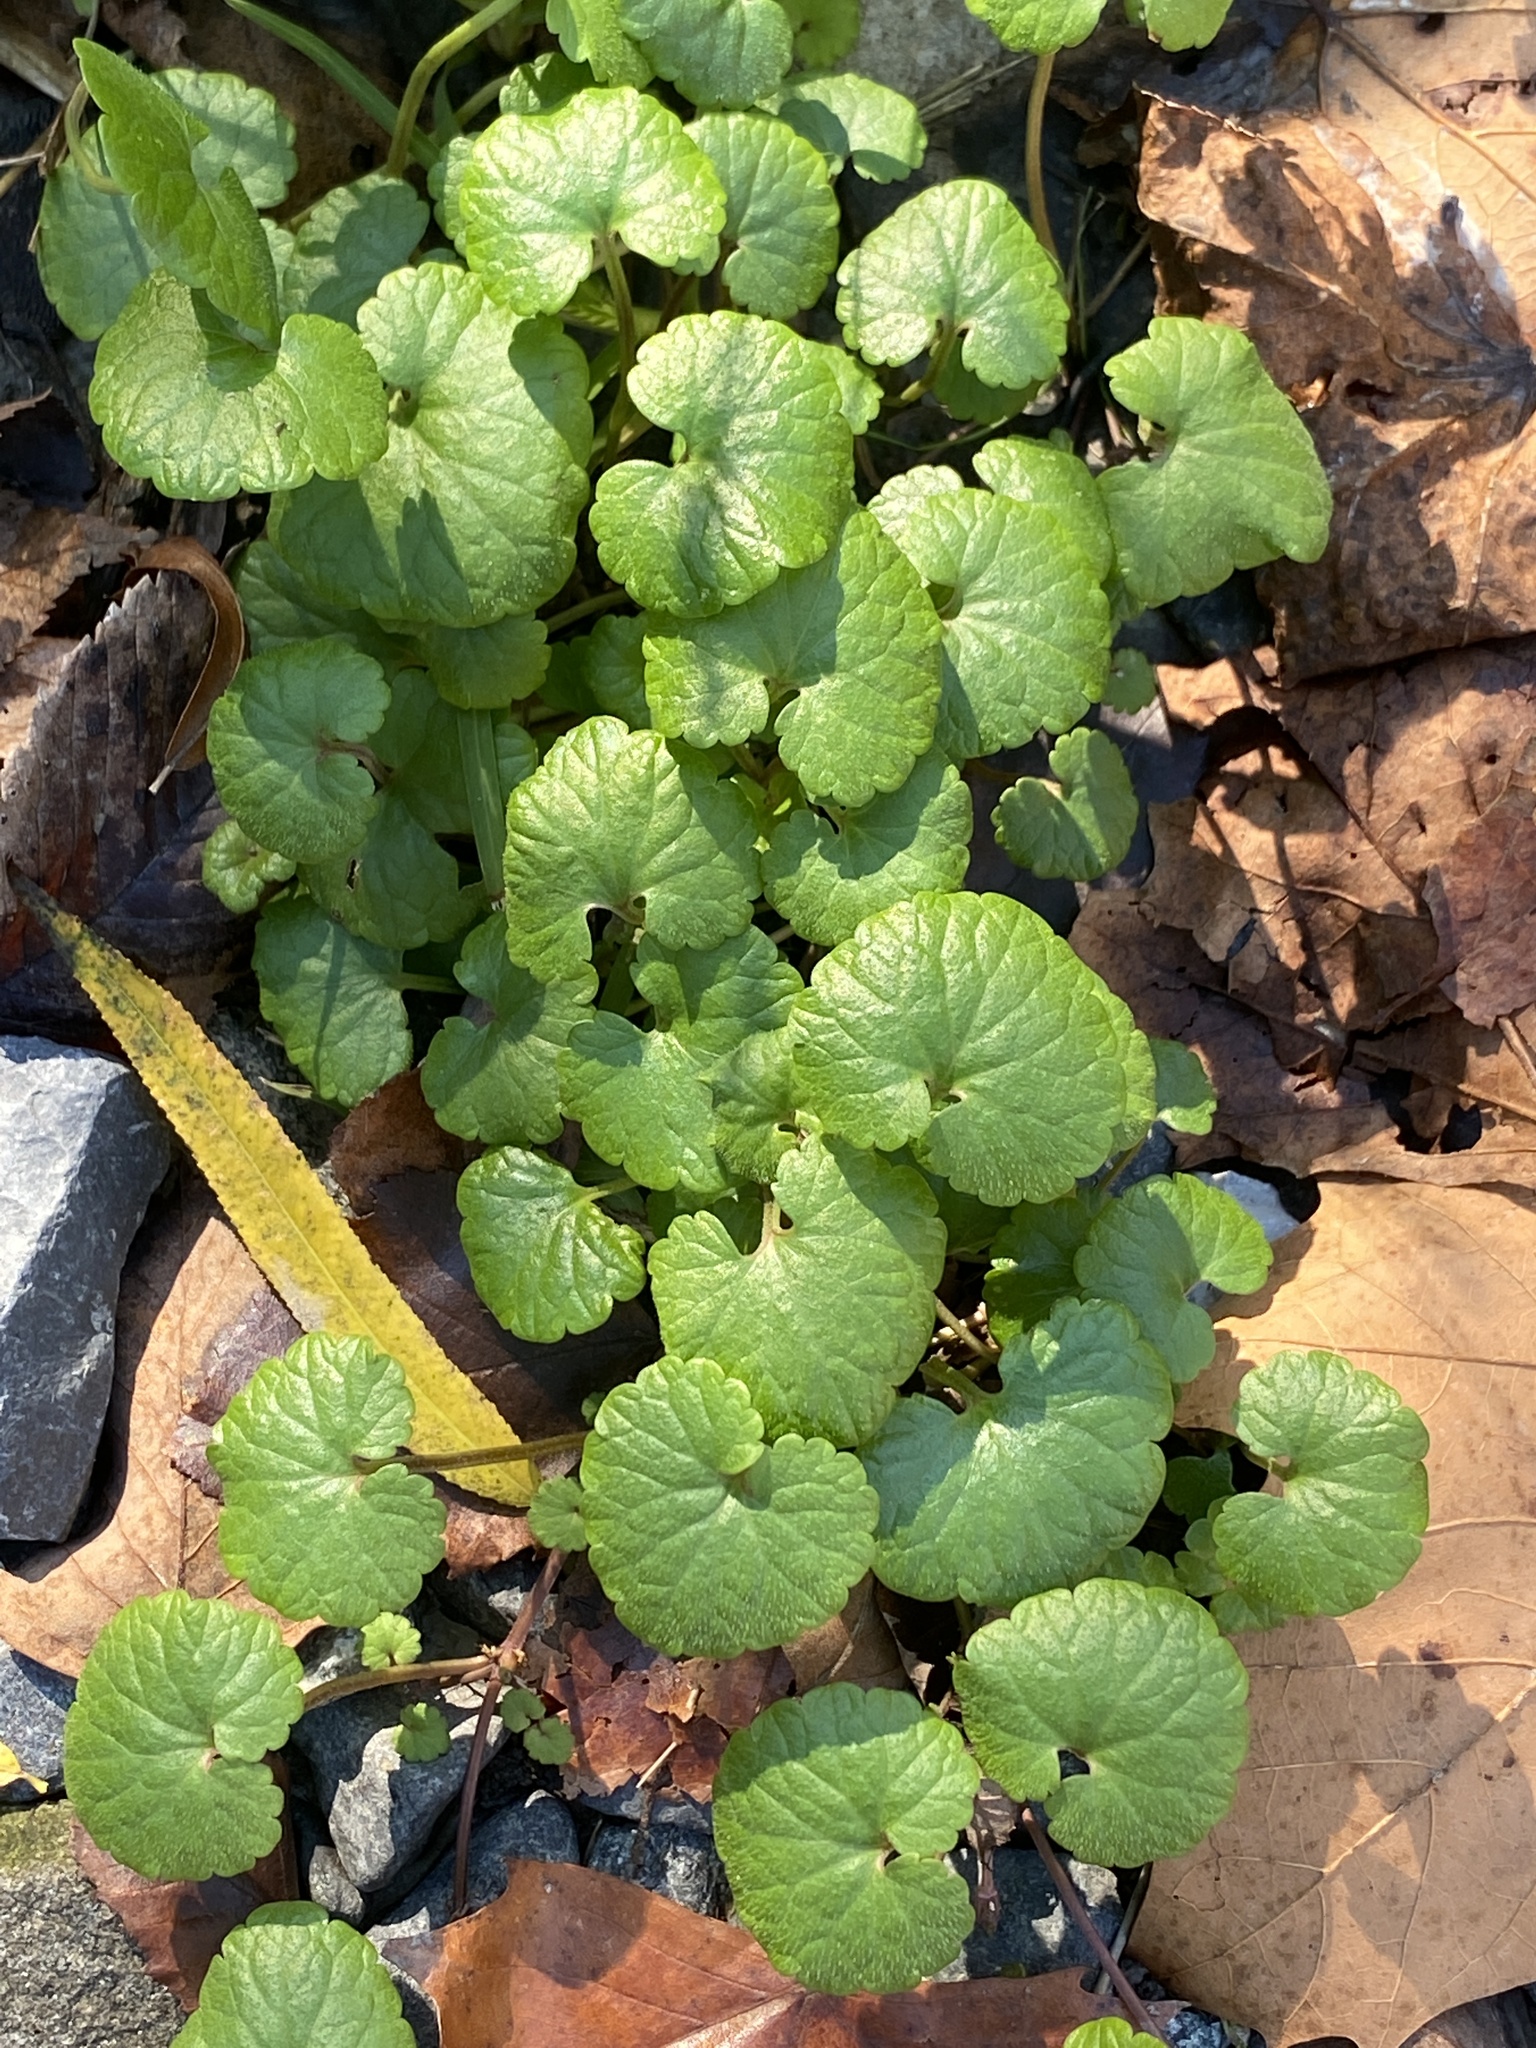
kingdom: Plantae
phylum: Tracheophyta
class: Magnoliopsida
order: Lamiales
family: Lamiaceae
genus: Glechoma
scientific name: Glechoma hederacea
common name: Ground ivy
